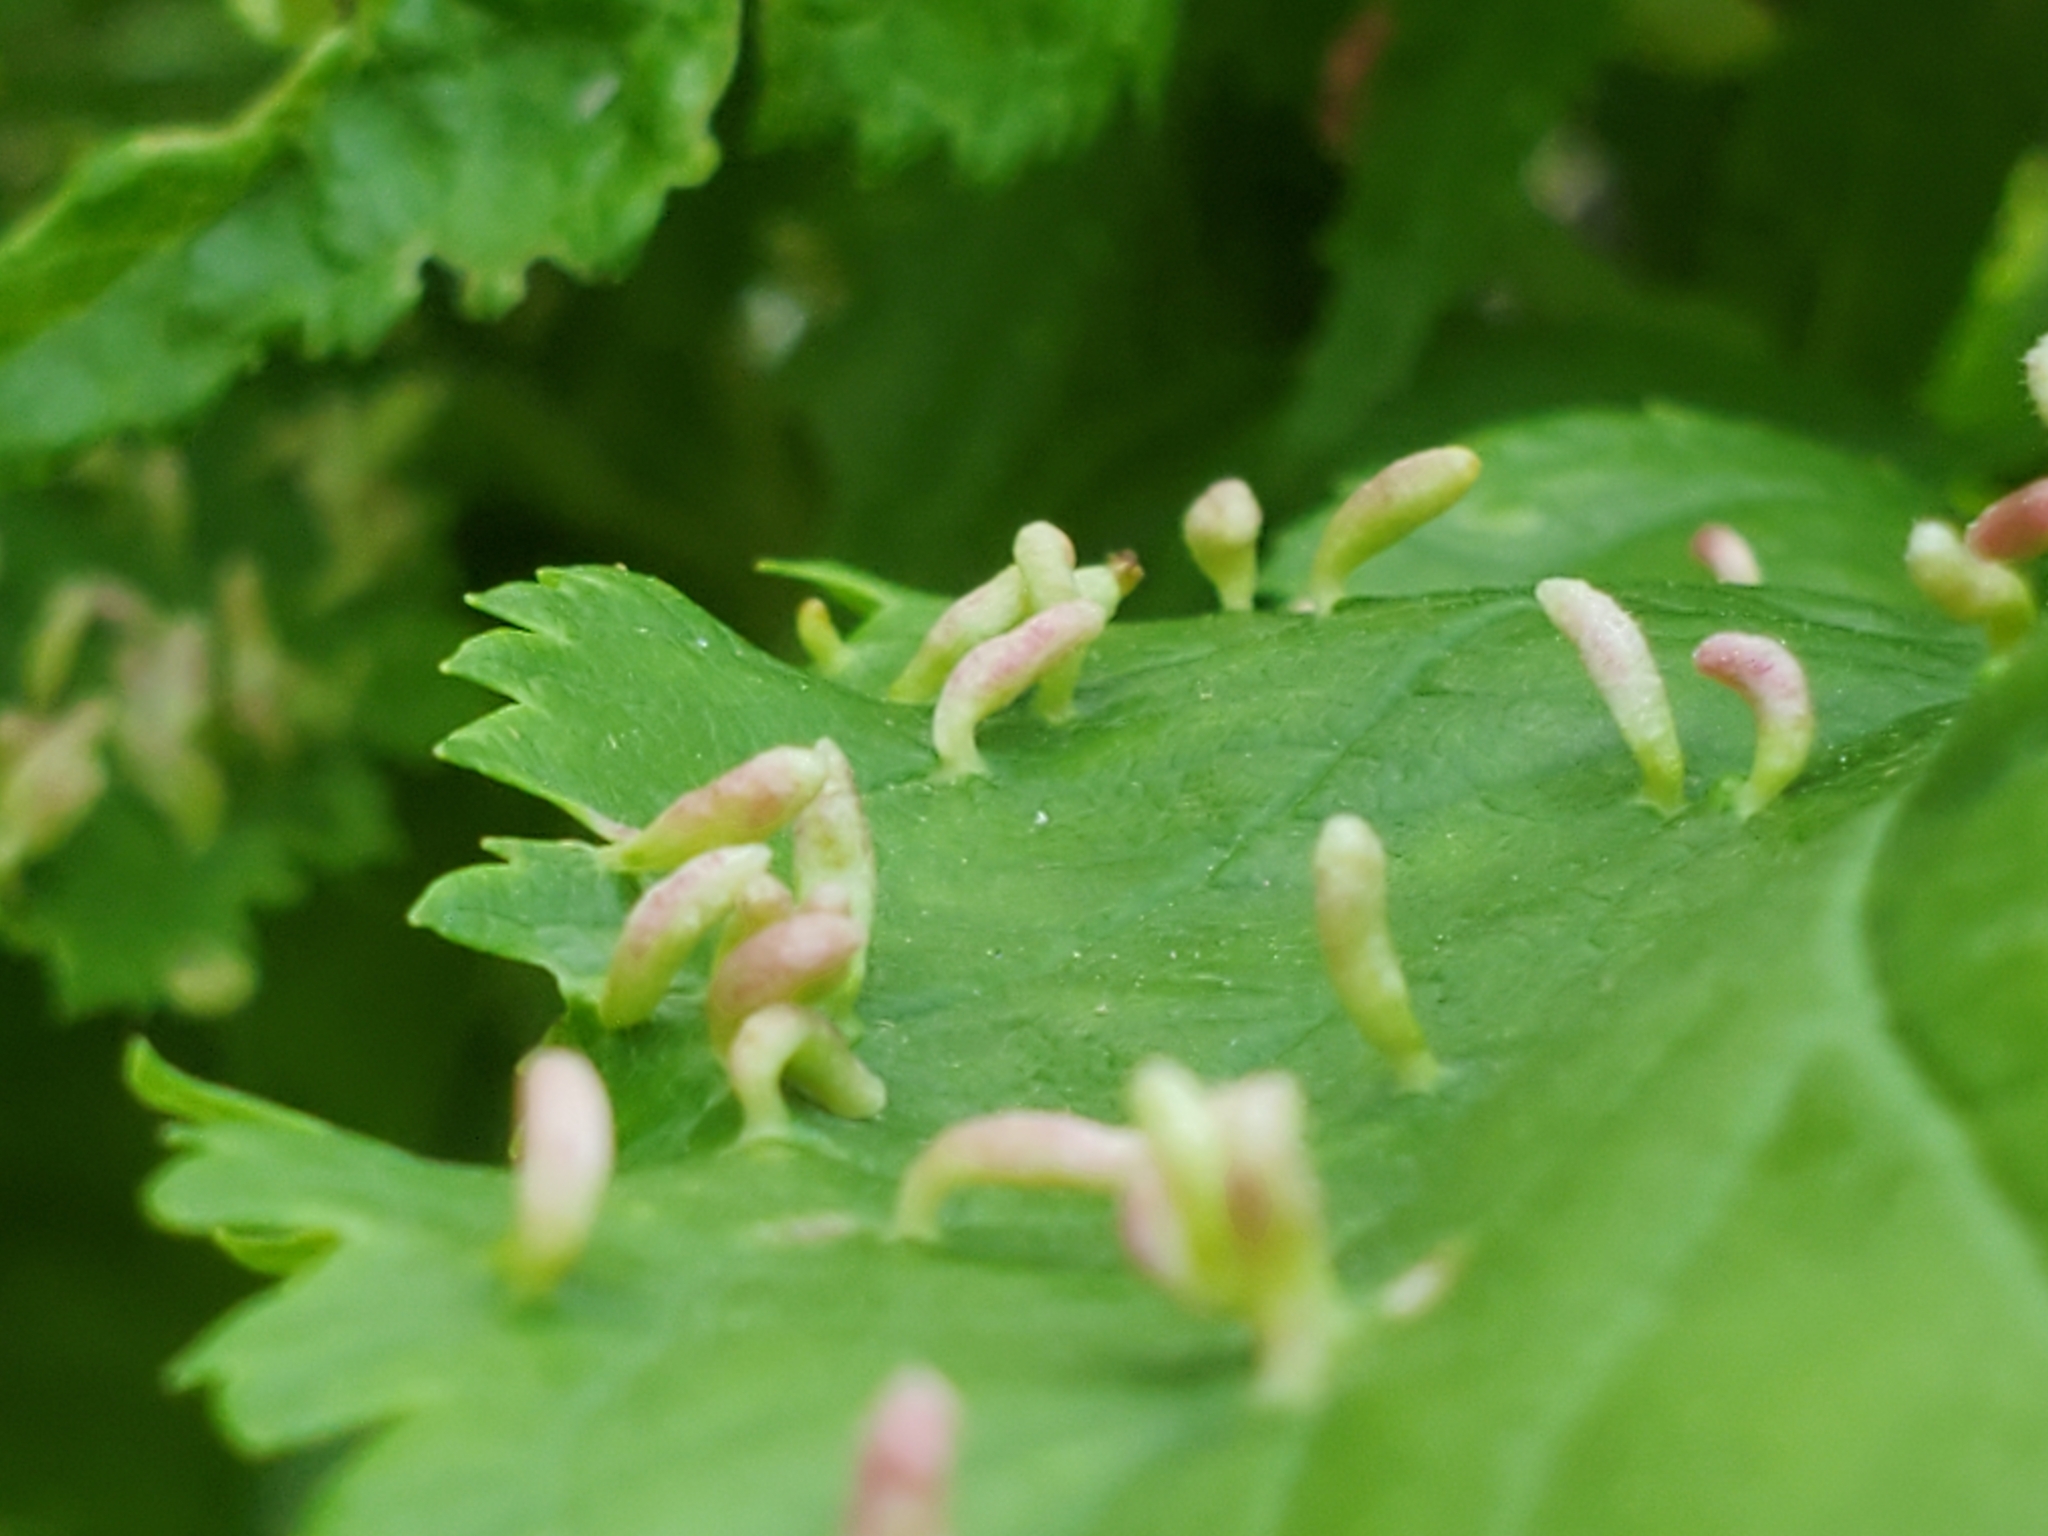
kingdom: Animalia
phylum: Arthropoda
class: Arachnida
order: Trombidiformes
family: Eriophyidae
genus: Eriophyes
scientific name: Eriophyes emarginatae
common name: Plum leaf gall mite
